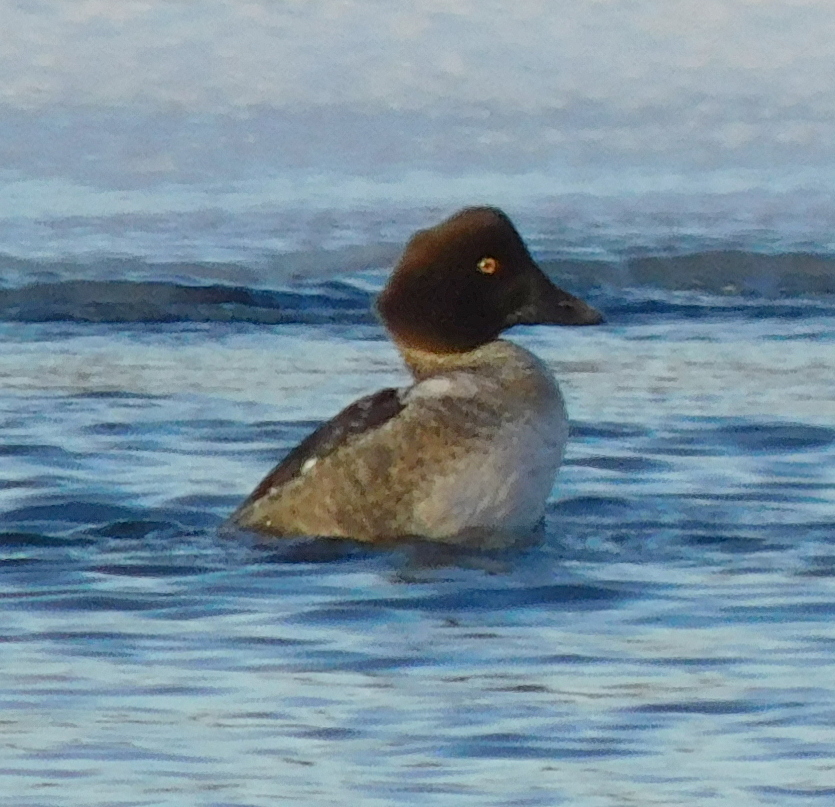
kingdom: Animalia
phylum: Chordata
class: Aves
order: Anseriformes
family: Anatidae
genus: Bucephala
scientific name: Bucephala clangula
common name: Common goldeneye
